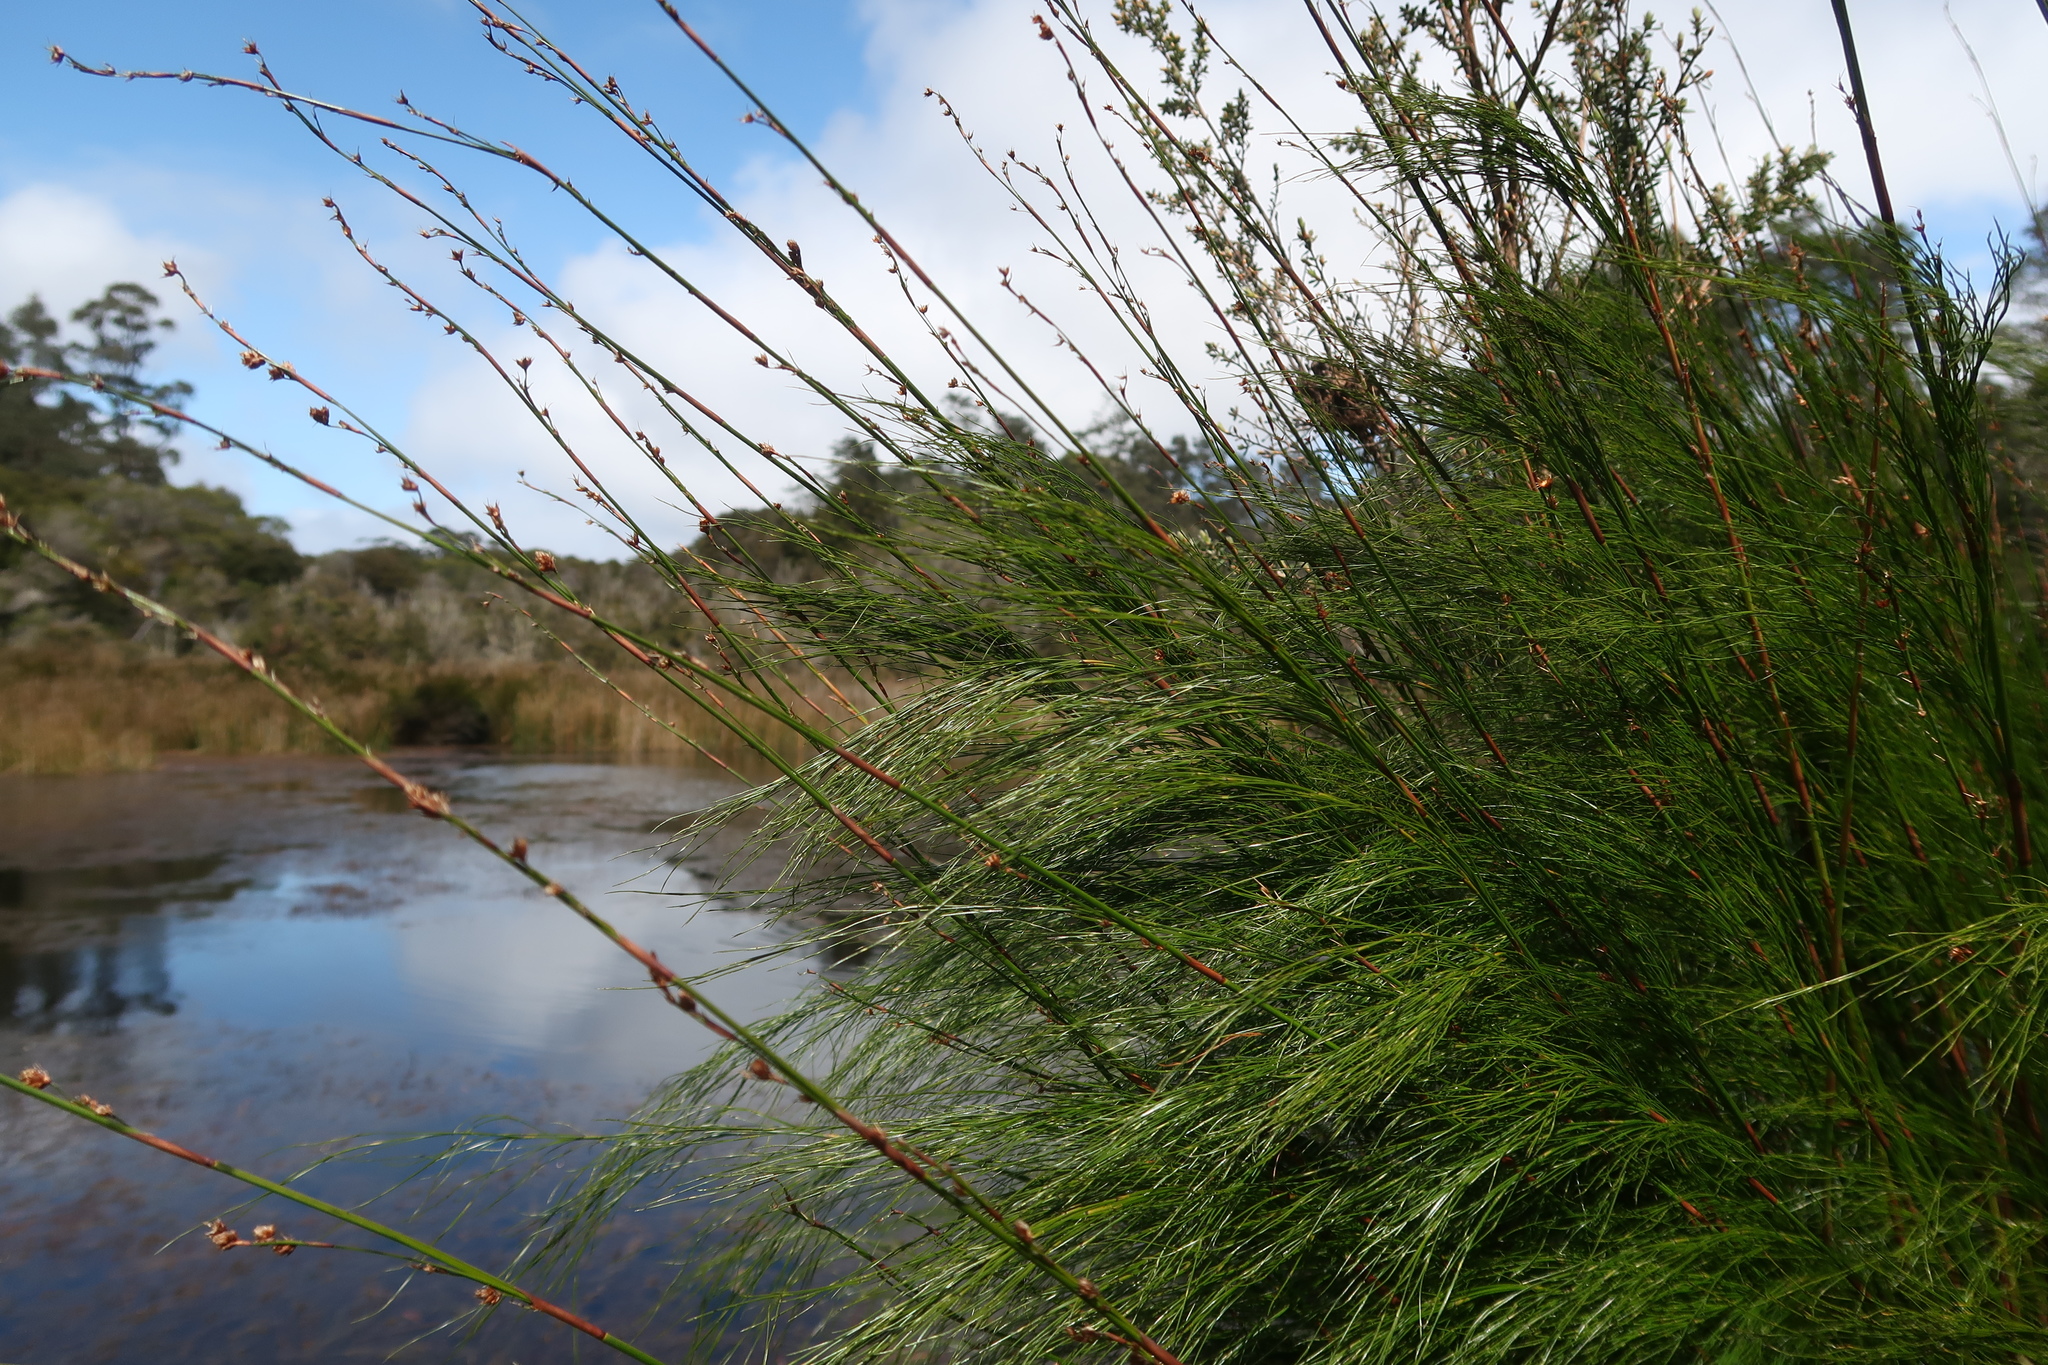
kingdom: Plantae
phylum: Tracheophyta
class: Liliopsida
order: Poales
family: Restionaceae
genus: Baloskion
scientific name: Baloskion tetraphyllum
